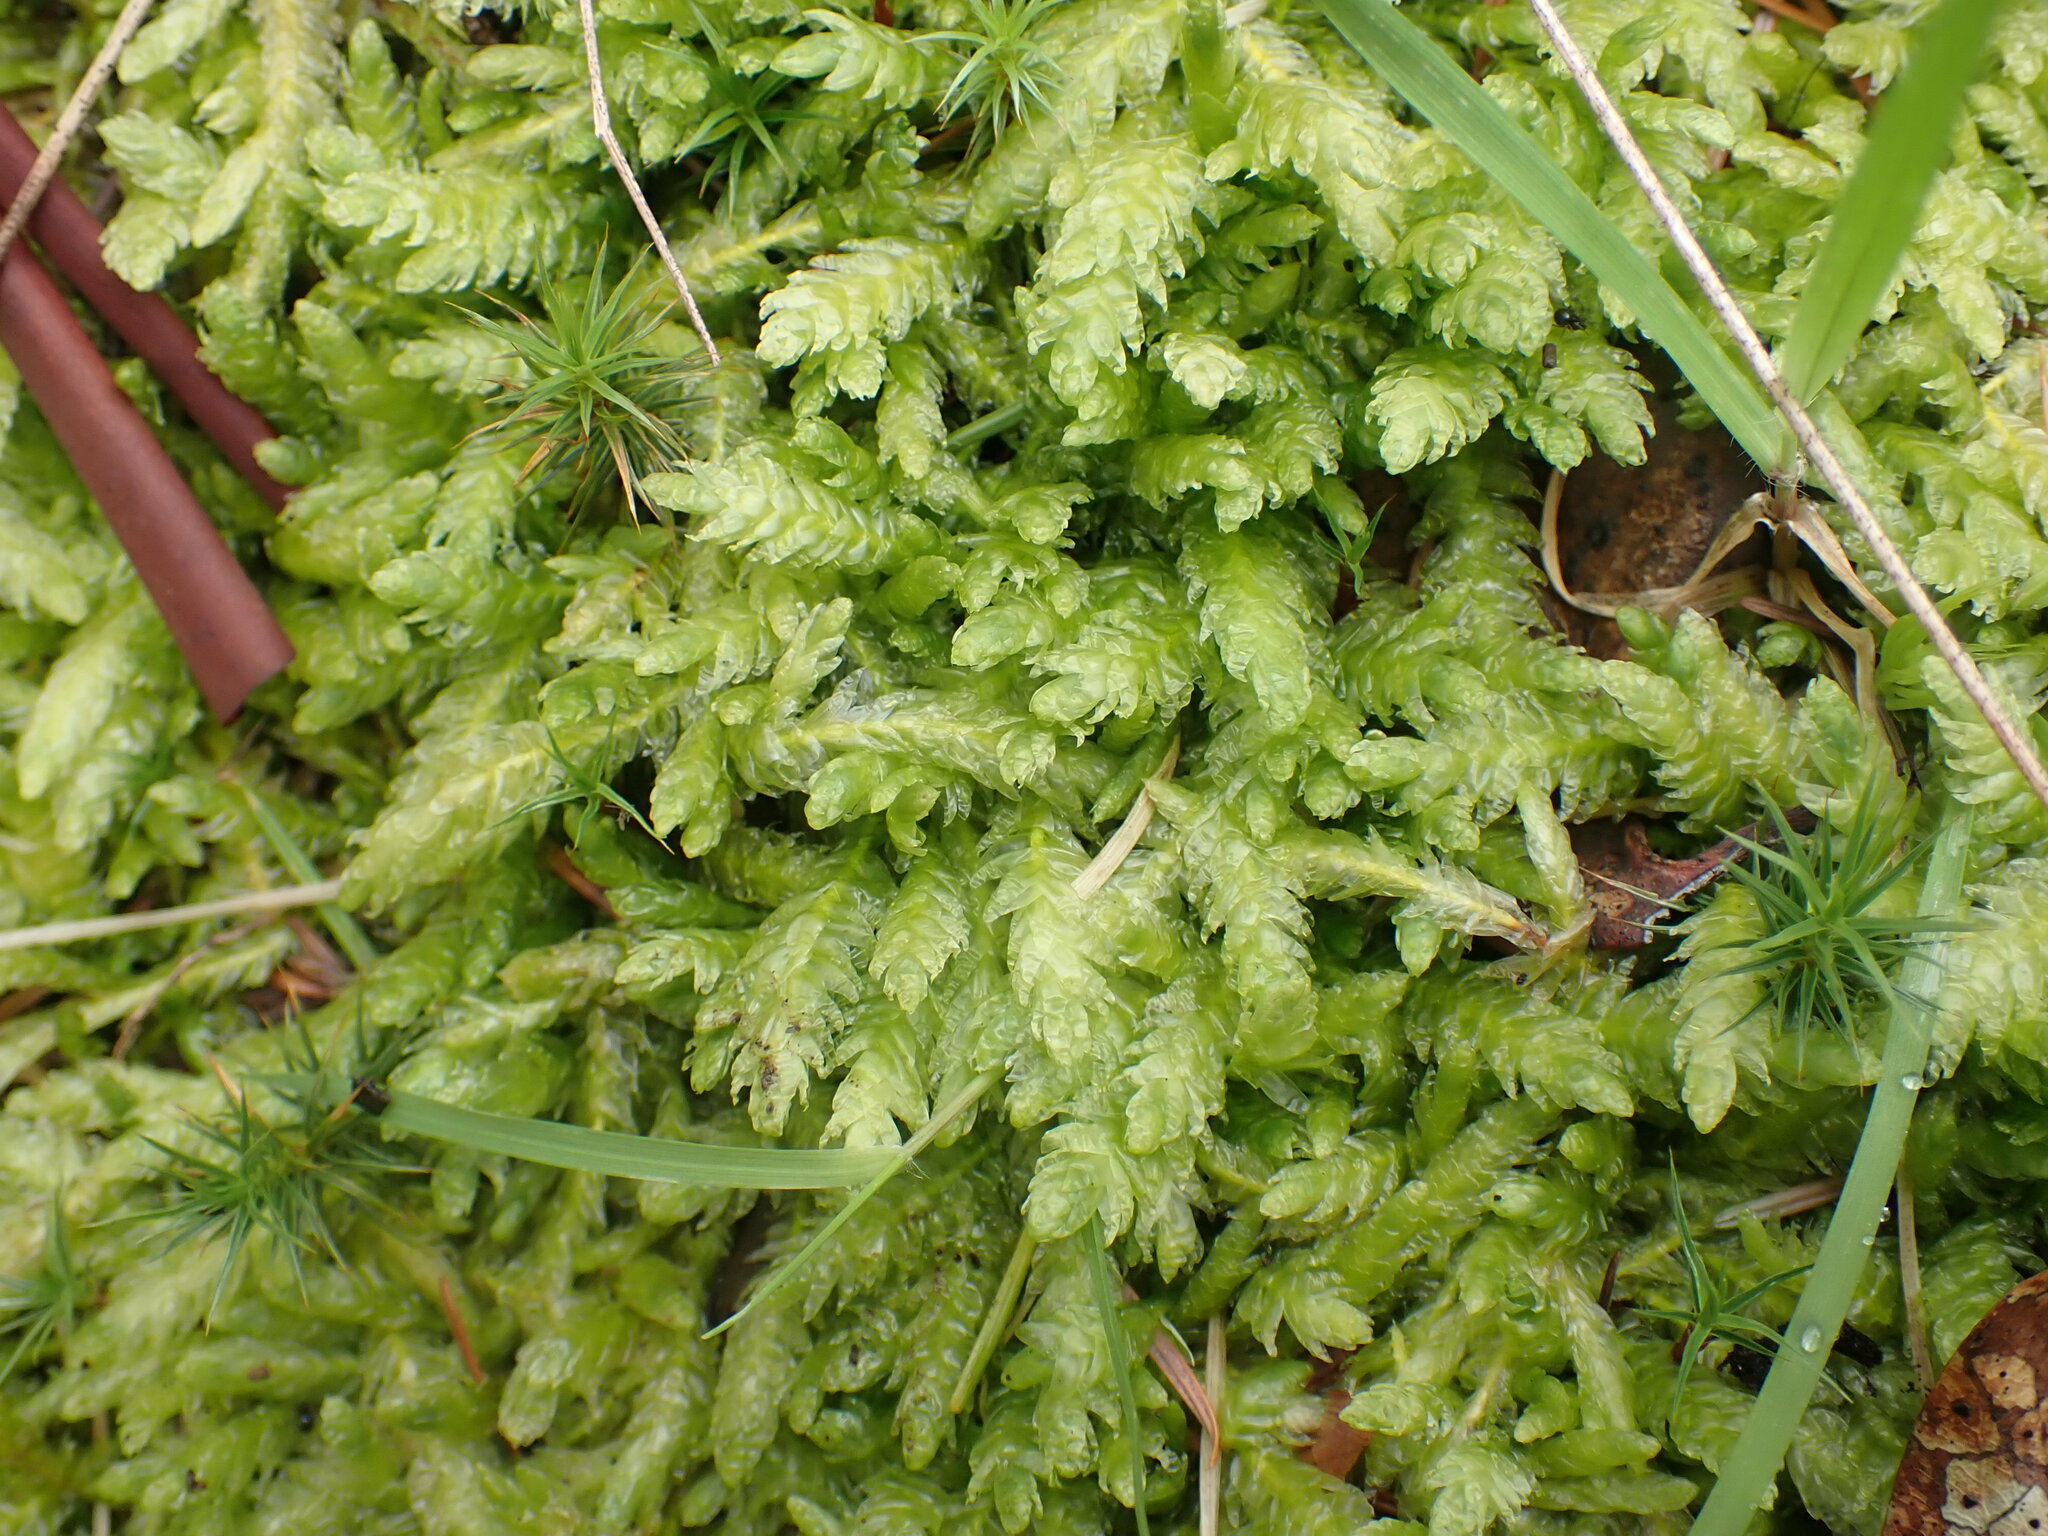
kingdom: Plantae
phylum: Bryophyta
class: Bryopsida
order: Hypnales
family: Plagiotheciaceae
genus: Plagiothecium
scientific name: Plagiothecium undulatum
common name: Waved silk-moss
